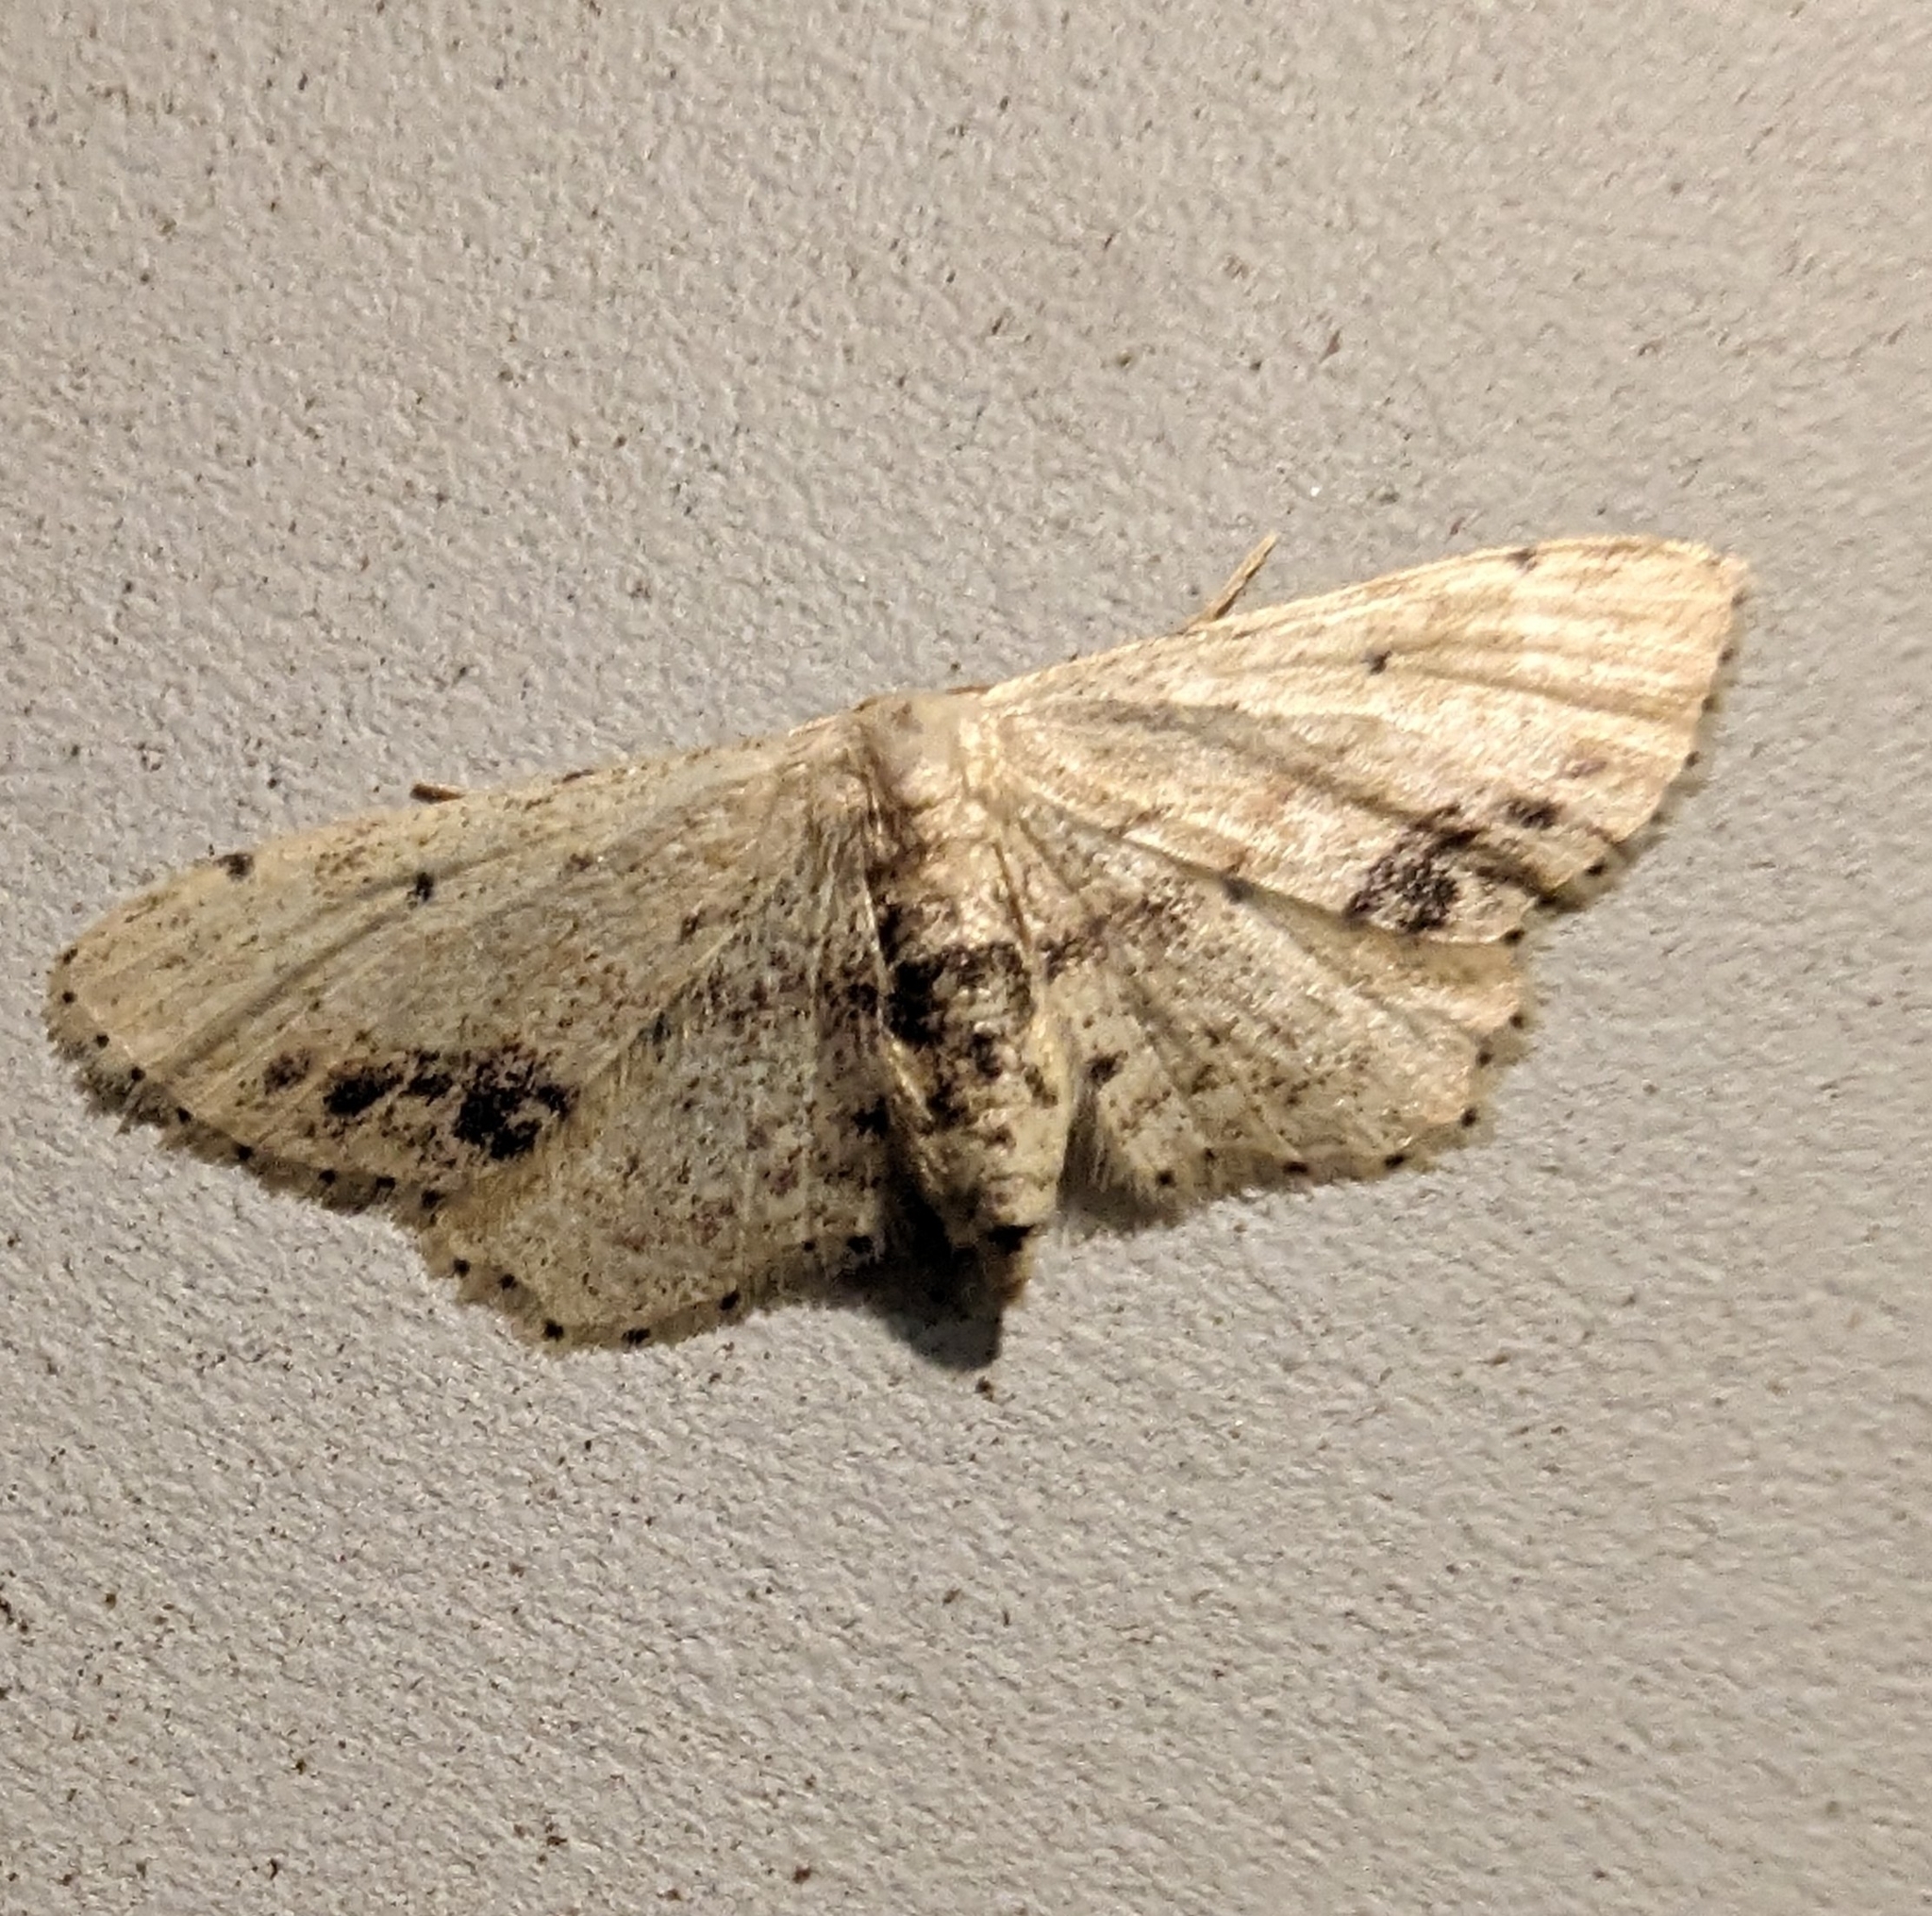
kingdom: Animalia
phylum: Arthropoda
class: Insecta
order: Lepidoptera
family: Geometridae
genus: Idaea
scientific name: Idaea dimidiata
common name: Single-dotted wave
